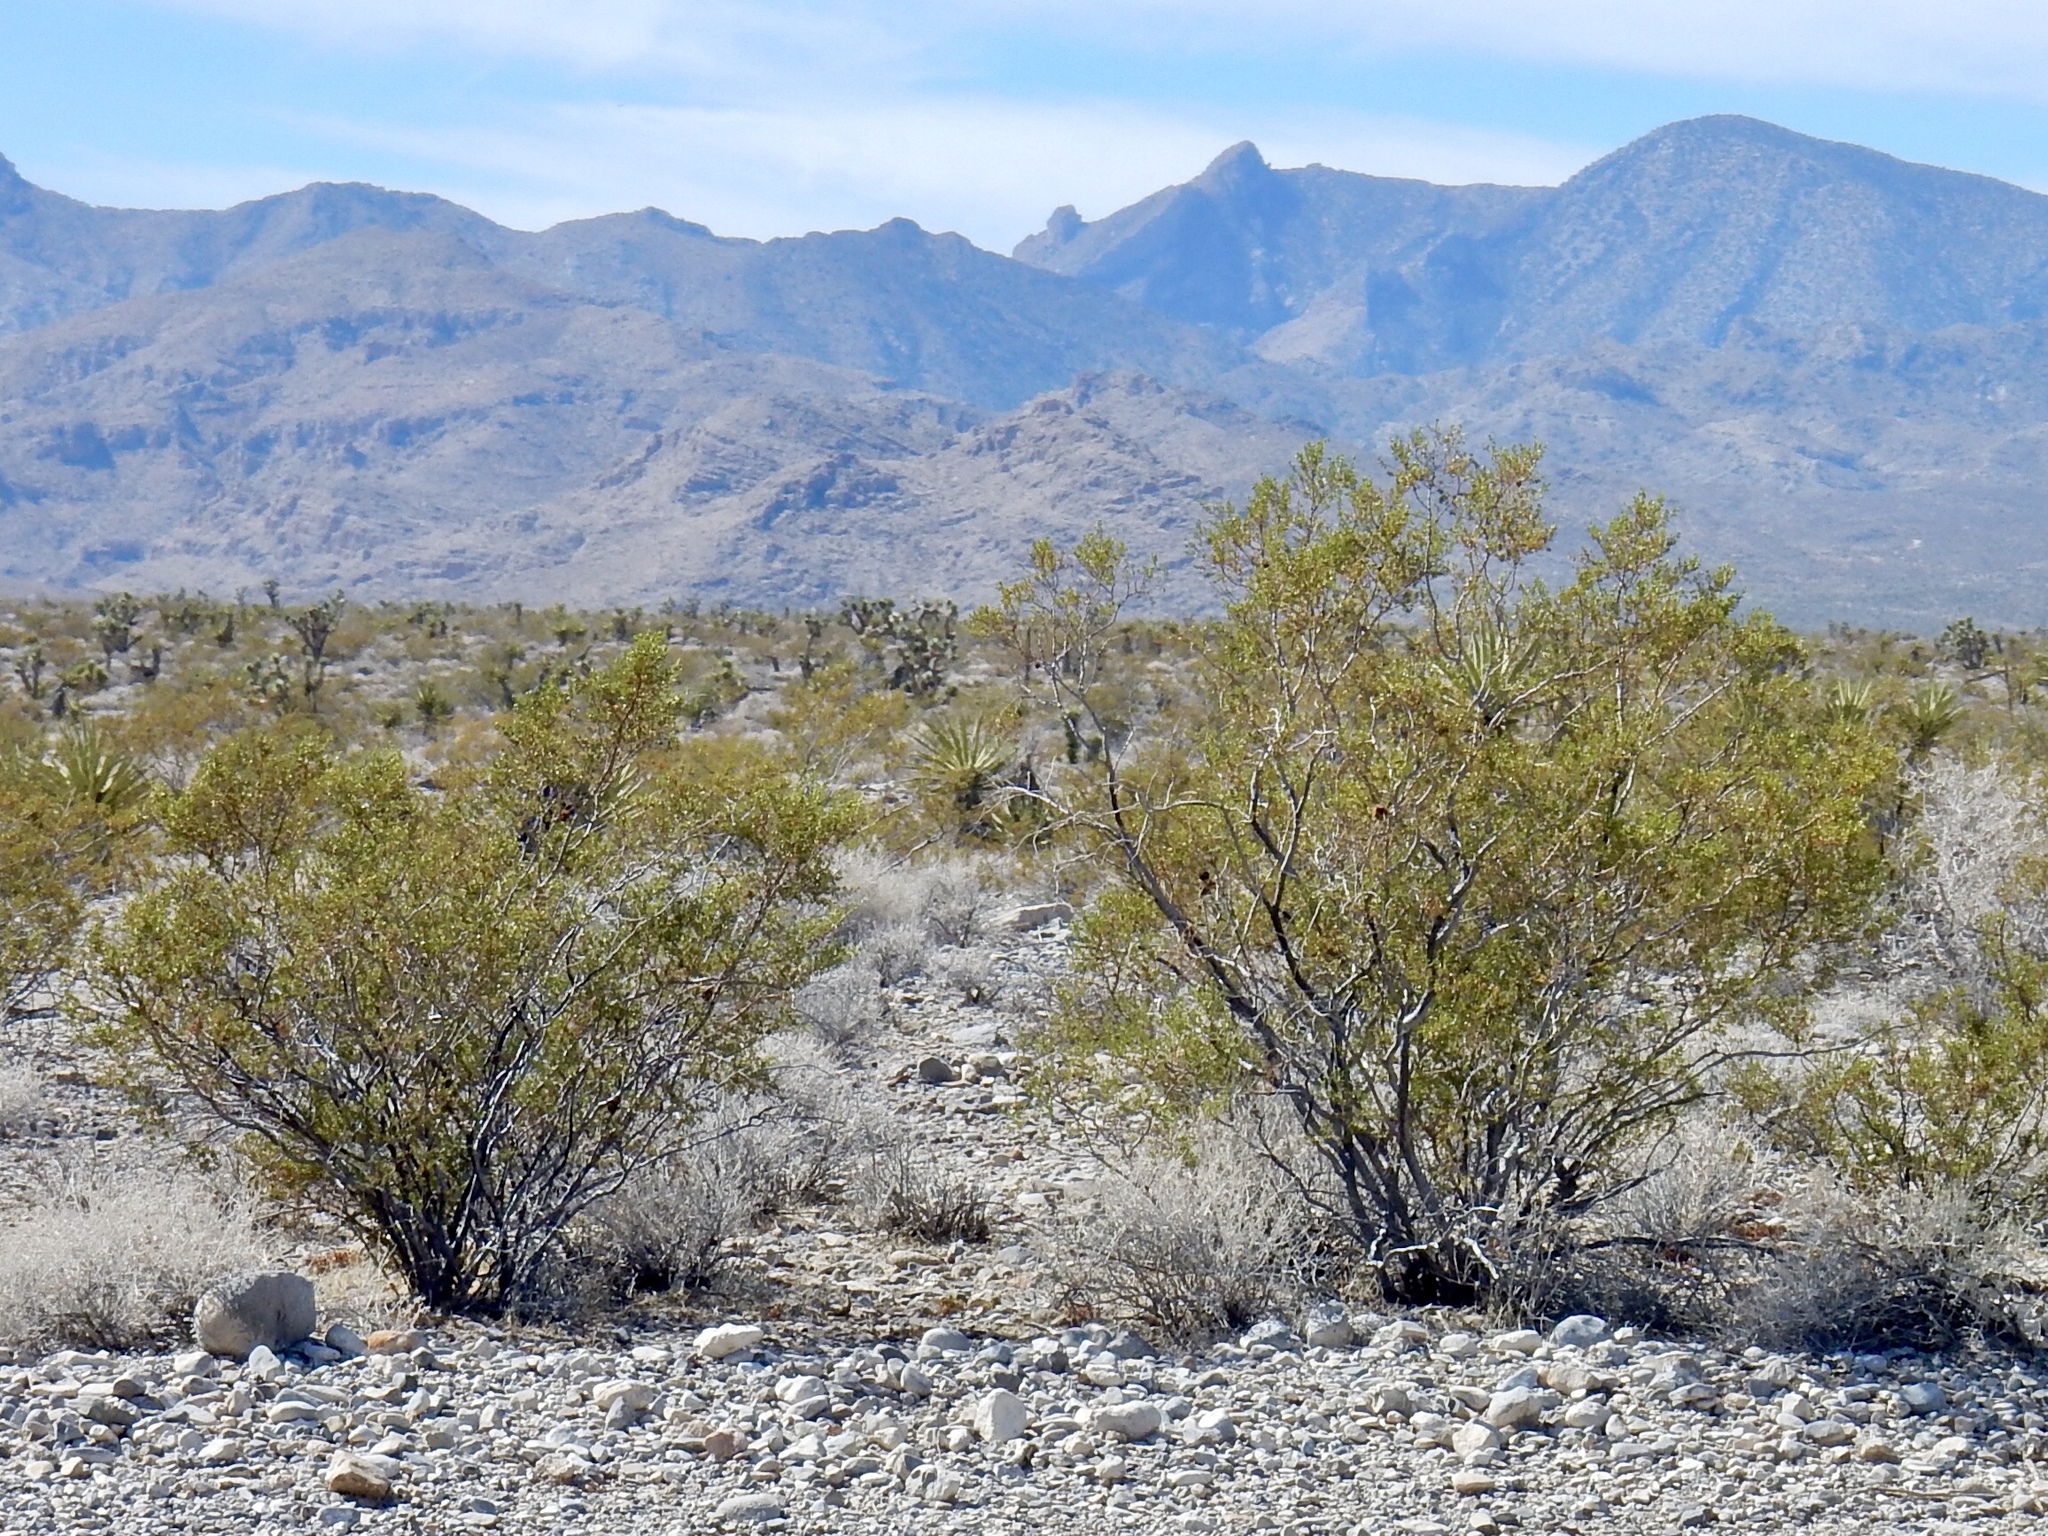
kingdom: Plantae
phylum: Tracheophyta
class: Magnoliopsida
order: Zygophyllales
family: Zygophyllaceae
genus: Larrea
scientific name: Larrea tridentata
